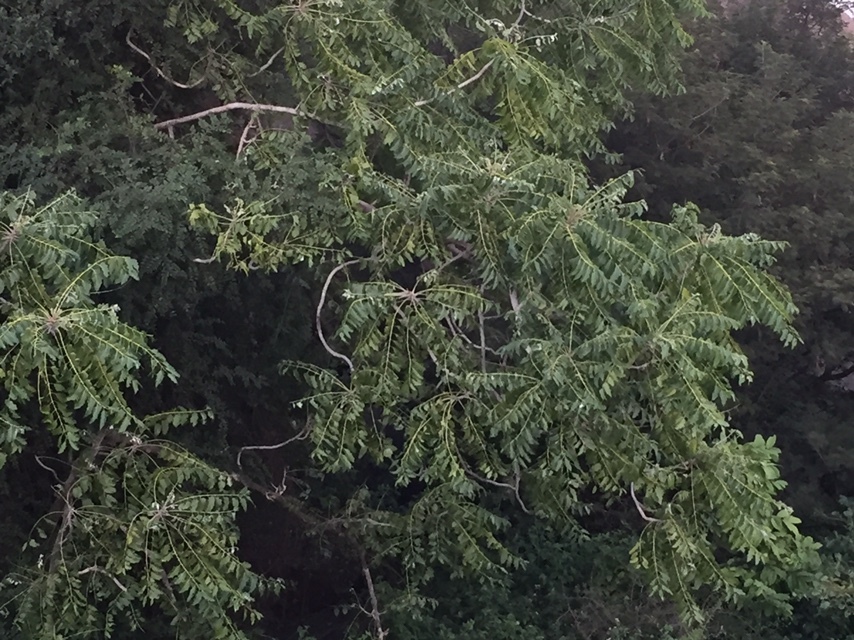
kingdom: Plantae
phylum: Tracheophyta
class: Magnoliopsida
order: Sapindales
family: Anacardiaceae
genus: Lannea
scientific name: Lannea coromandelica
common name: Indian ash tree
